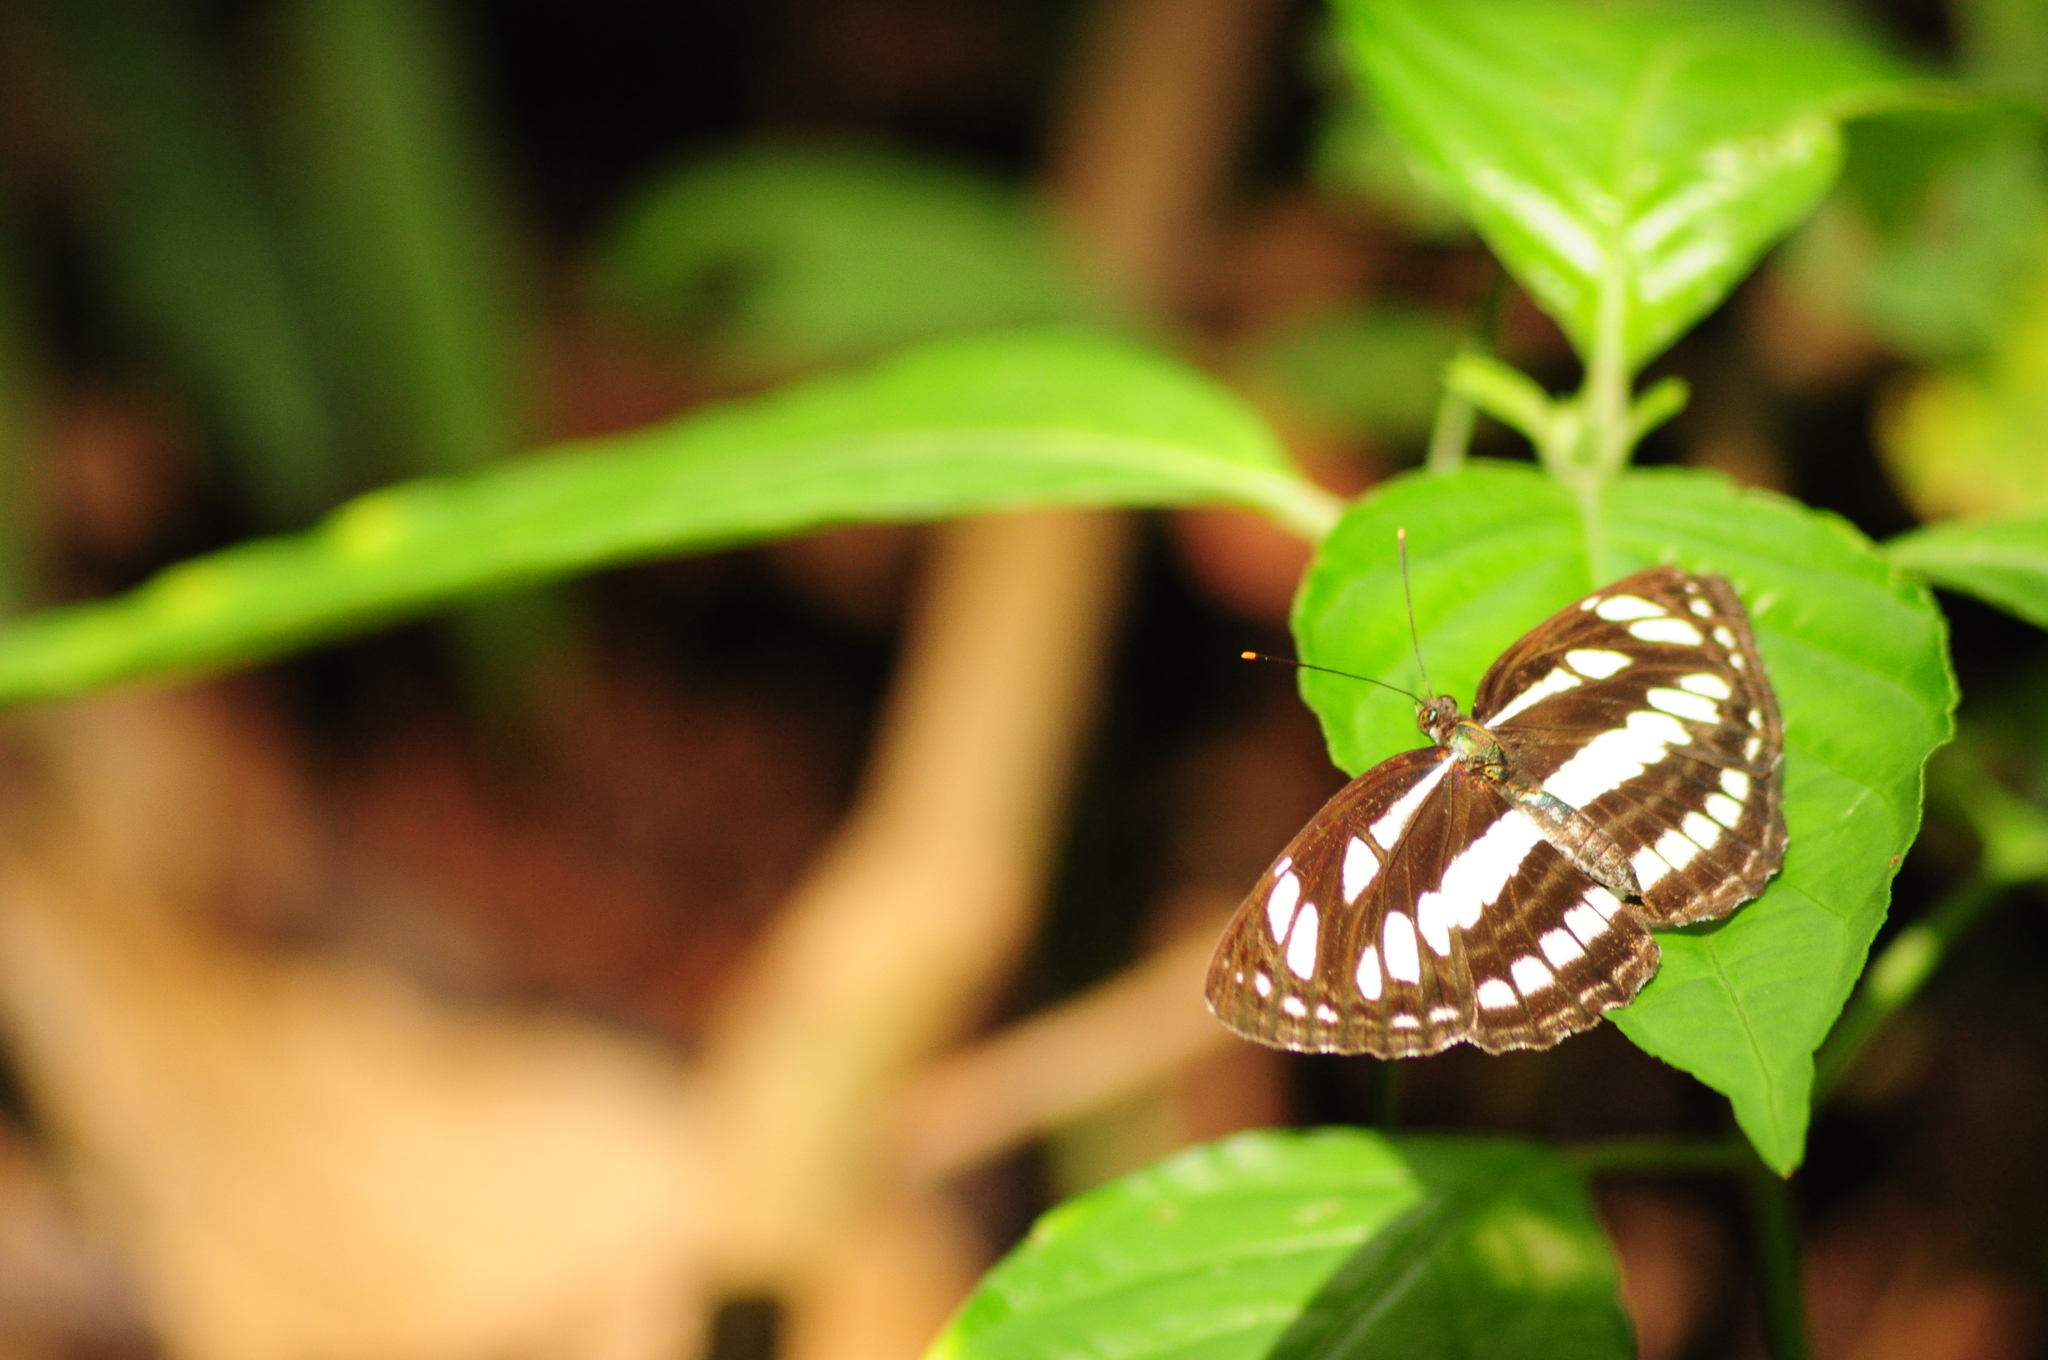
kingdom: Animalia
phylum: Arthropoda
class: Insecta
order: Lepidoptera
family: Nymphalidae
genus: Neptis
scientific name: Neptis hylas
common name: Common sailer
